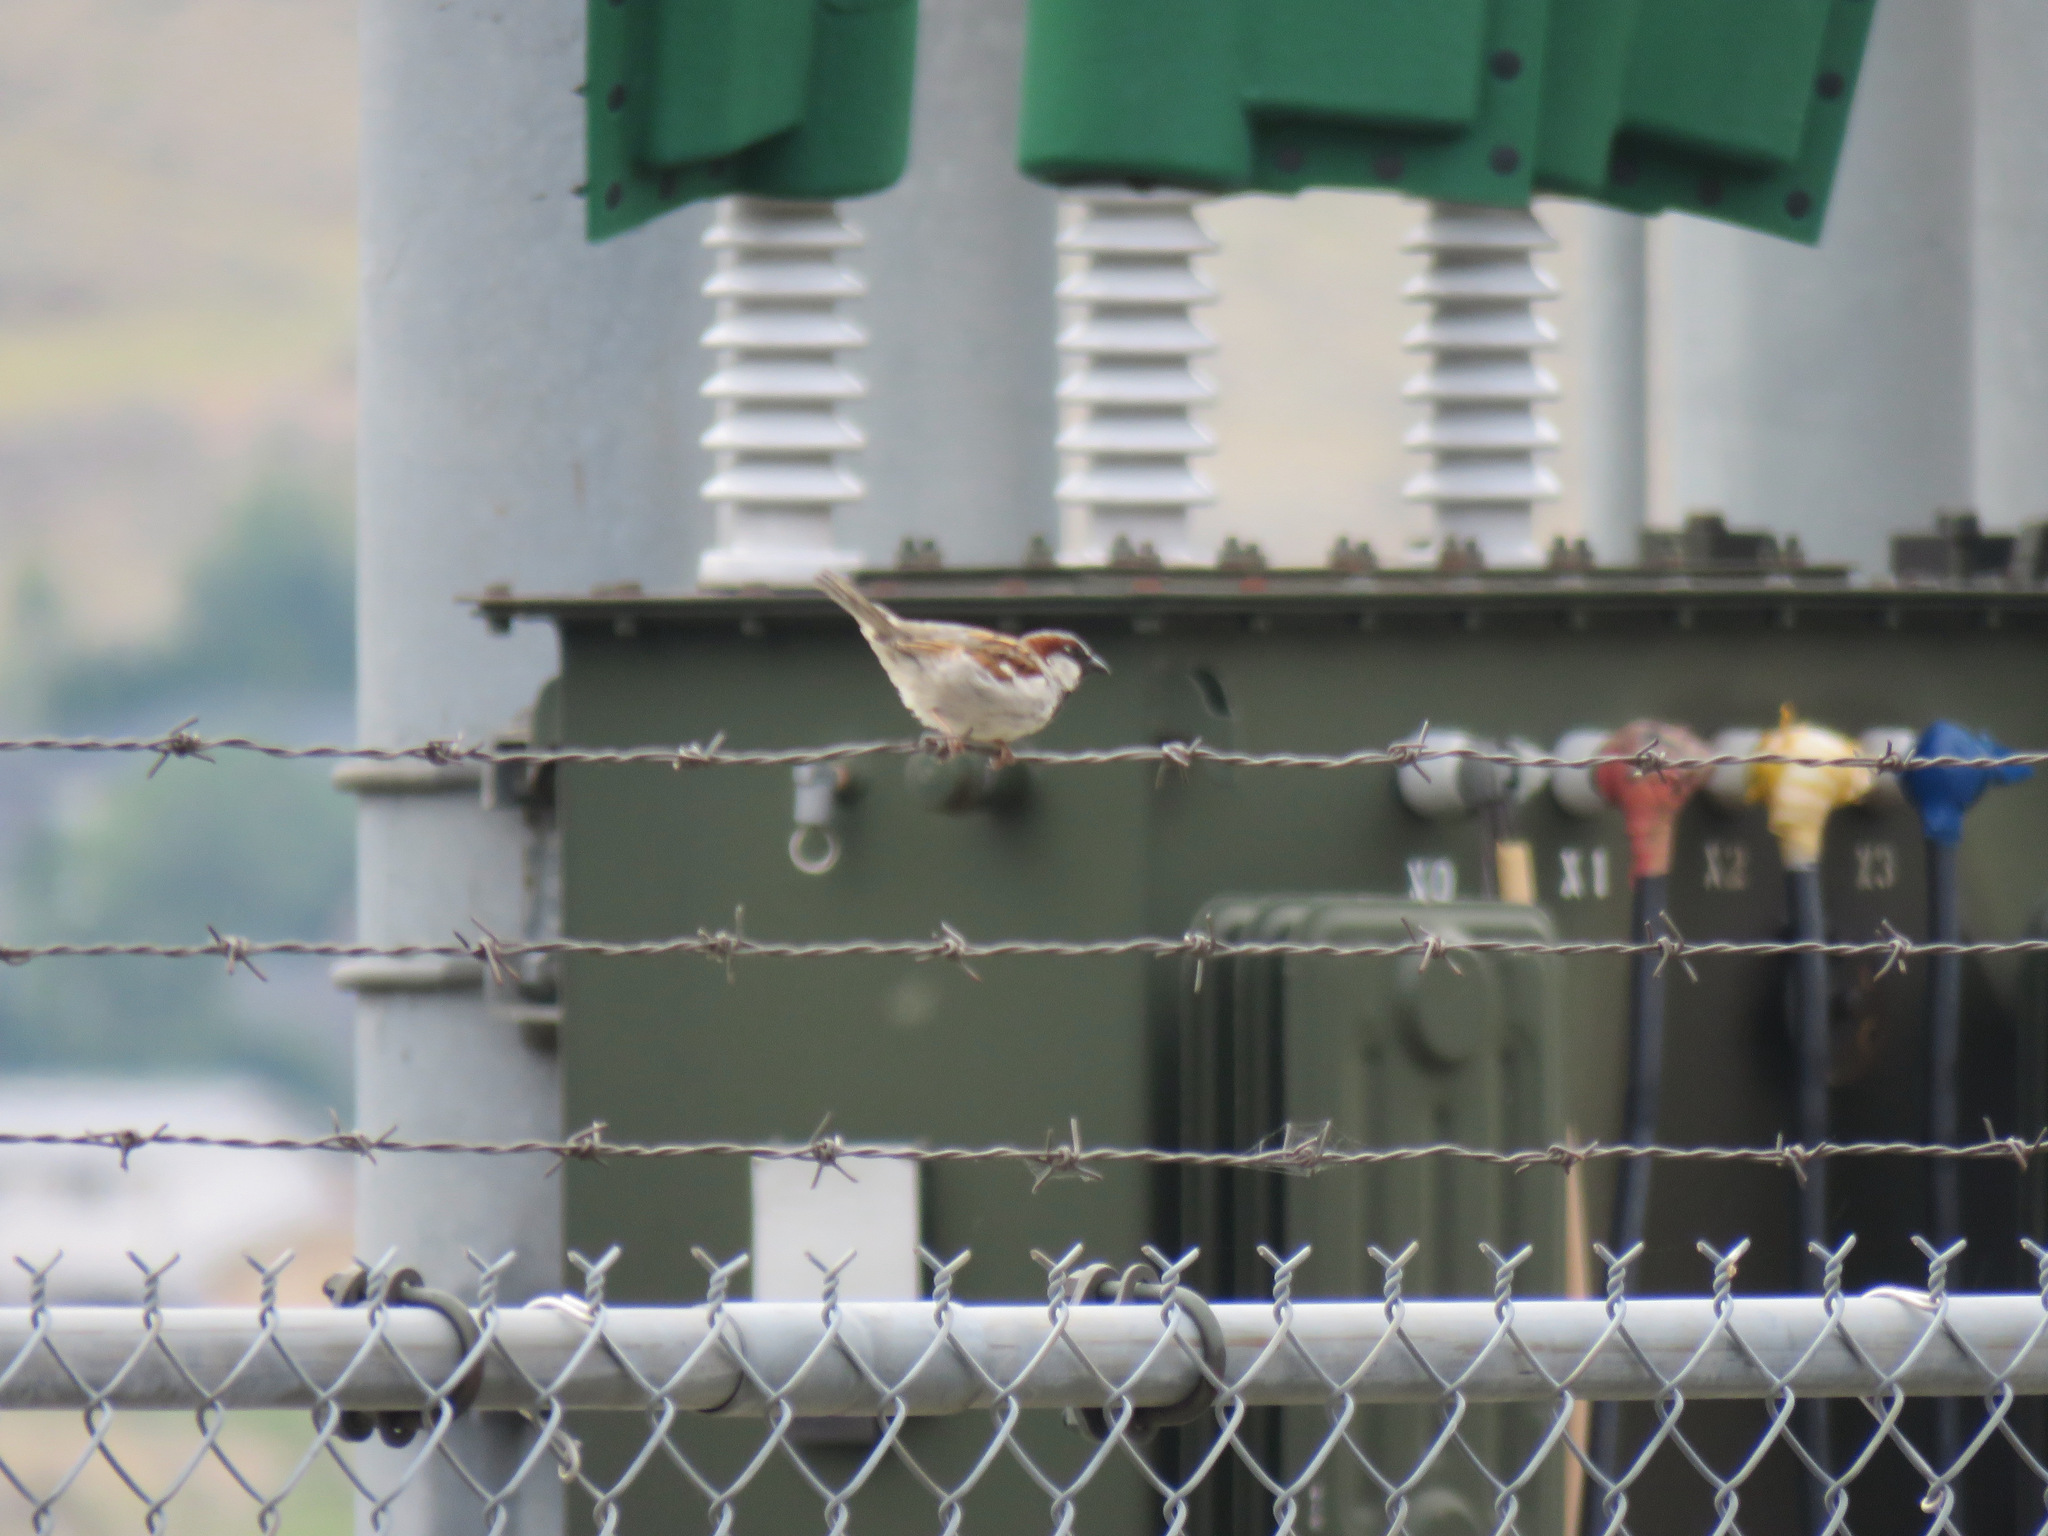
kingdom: Animalia
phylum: Chordata
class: Aves
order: Passeriformes
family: Passeridae
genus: Passer
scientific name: Passer domesticus
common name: House sparrow
